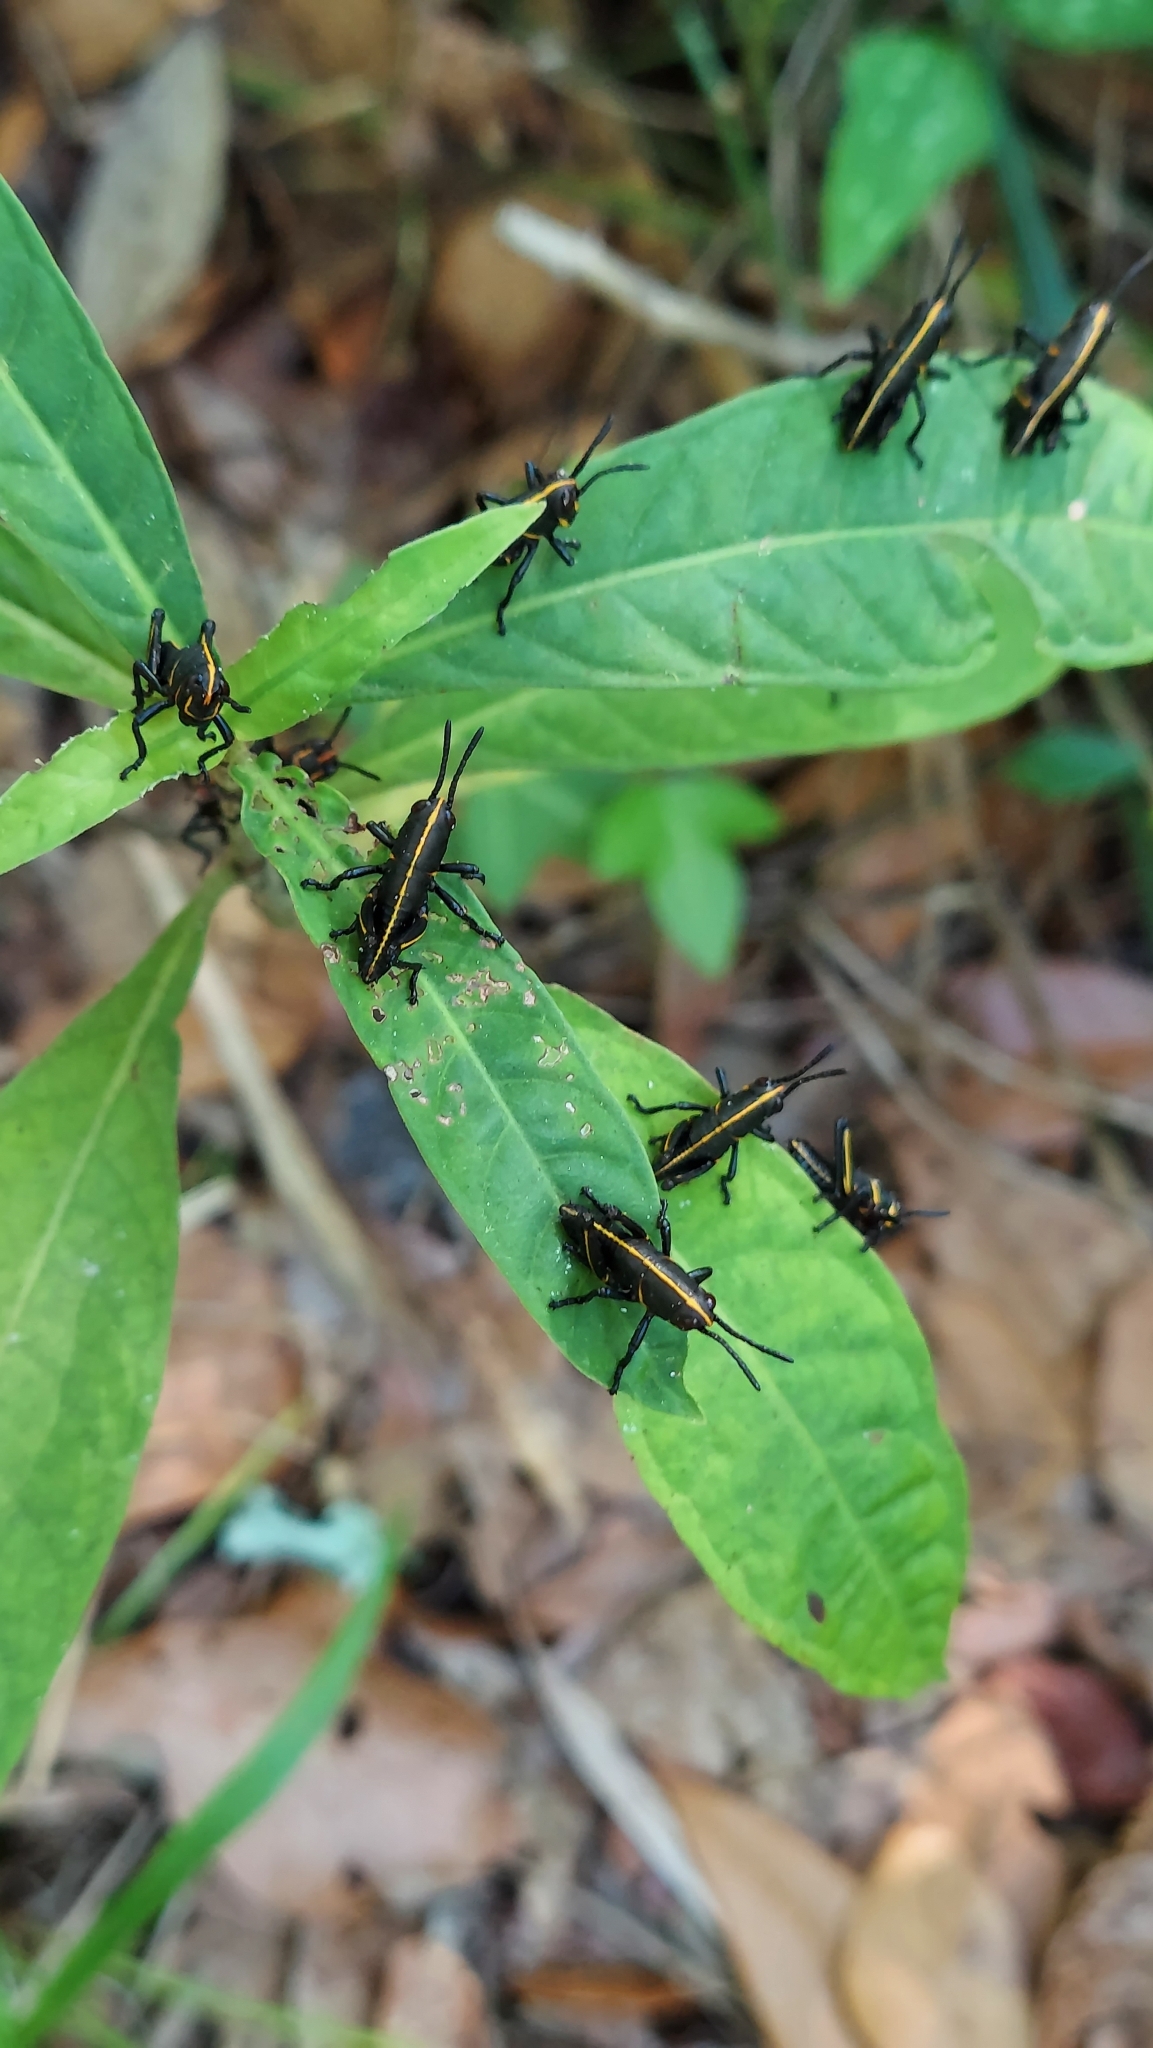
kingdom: Animalia
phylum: Arthropoda
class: Insecta
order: Orthoptera
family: Romaleidae
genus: Romalea
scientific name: Romalea microptera
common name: Eastern lubber grasshopper
